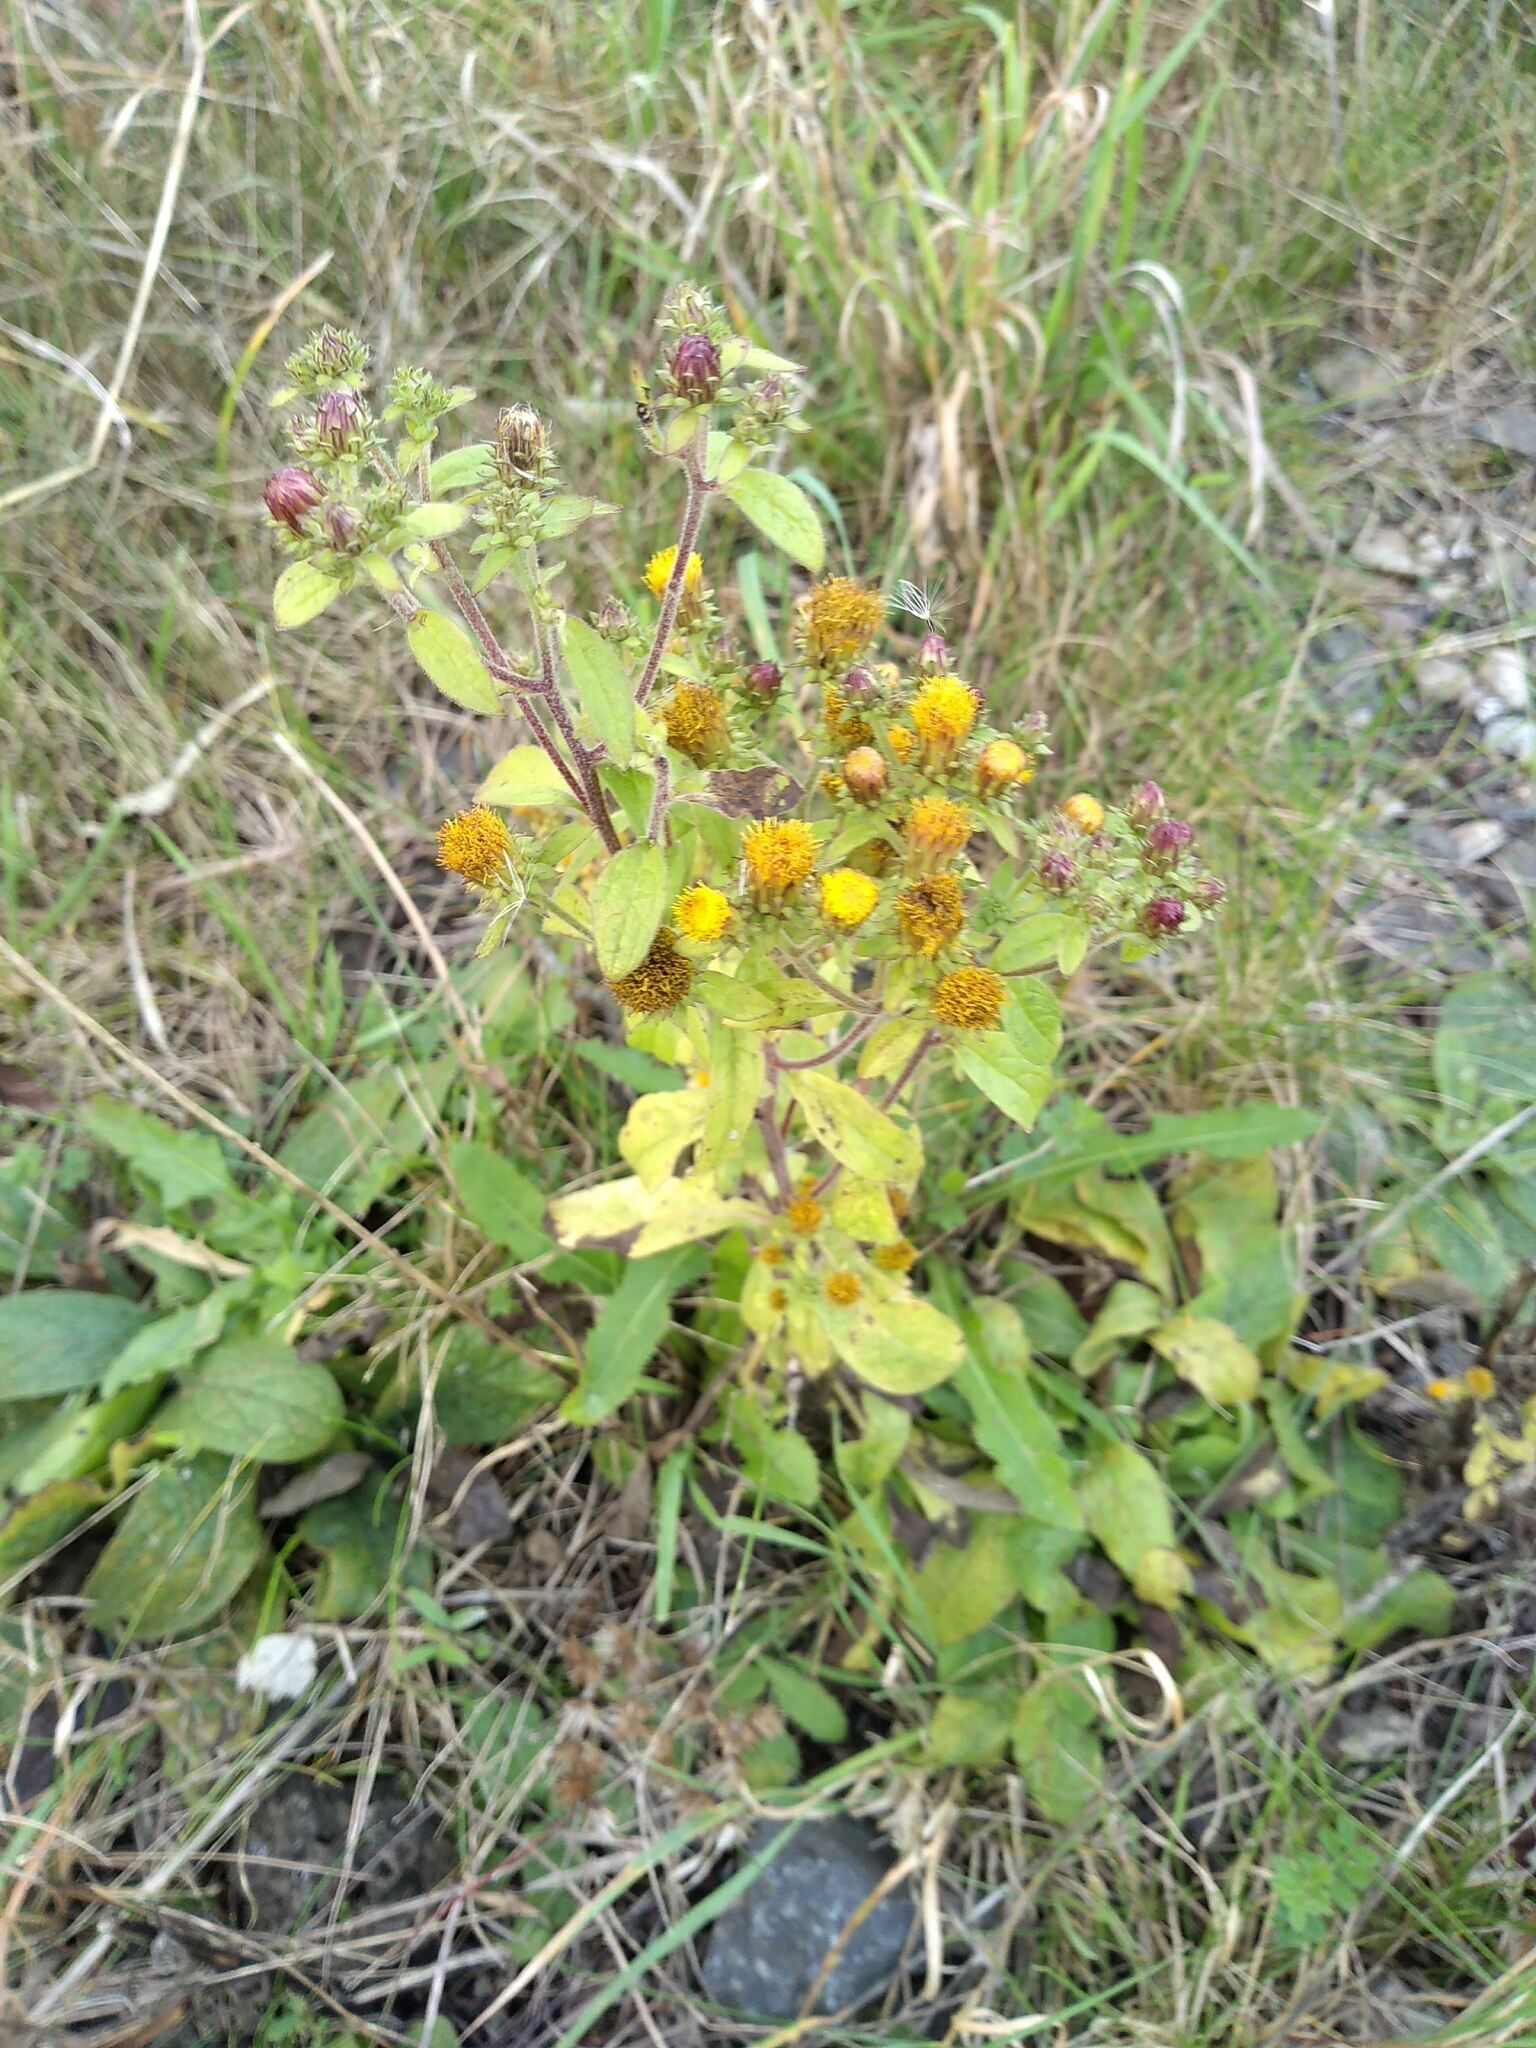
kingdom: Plantae
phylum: Tracheophyta
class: Magnoliopsida
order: Asterales
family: Asteraceae
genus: Pentanema
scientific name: Pentanema squarrosum
